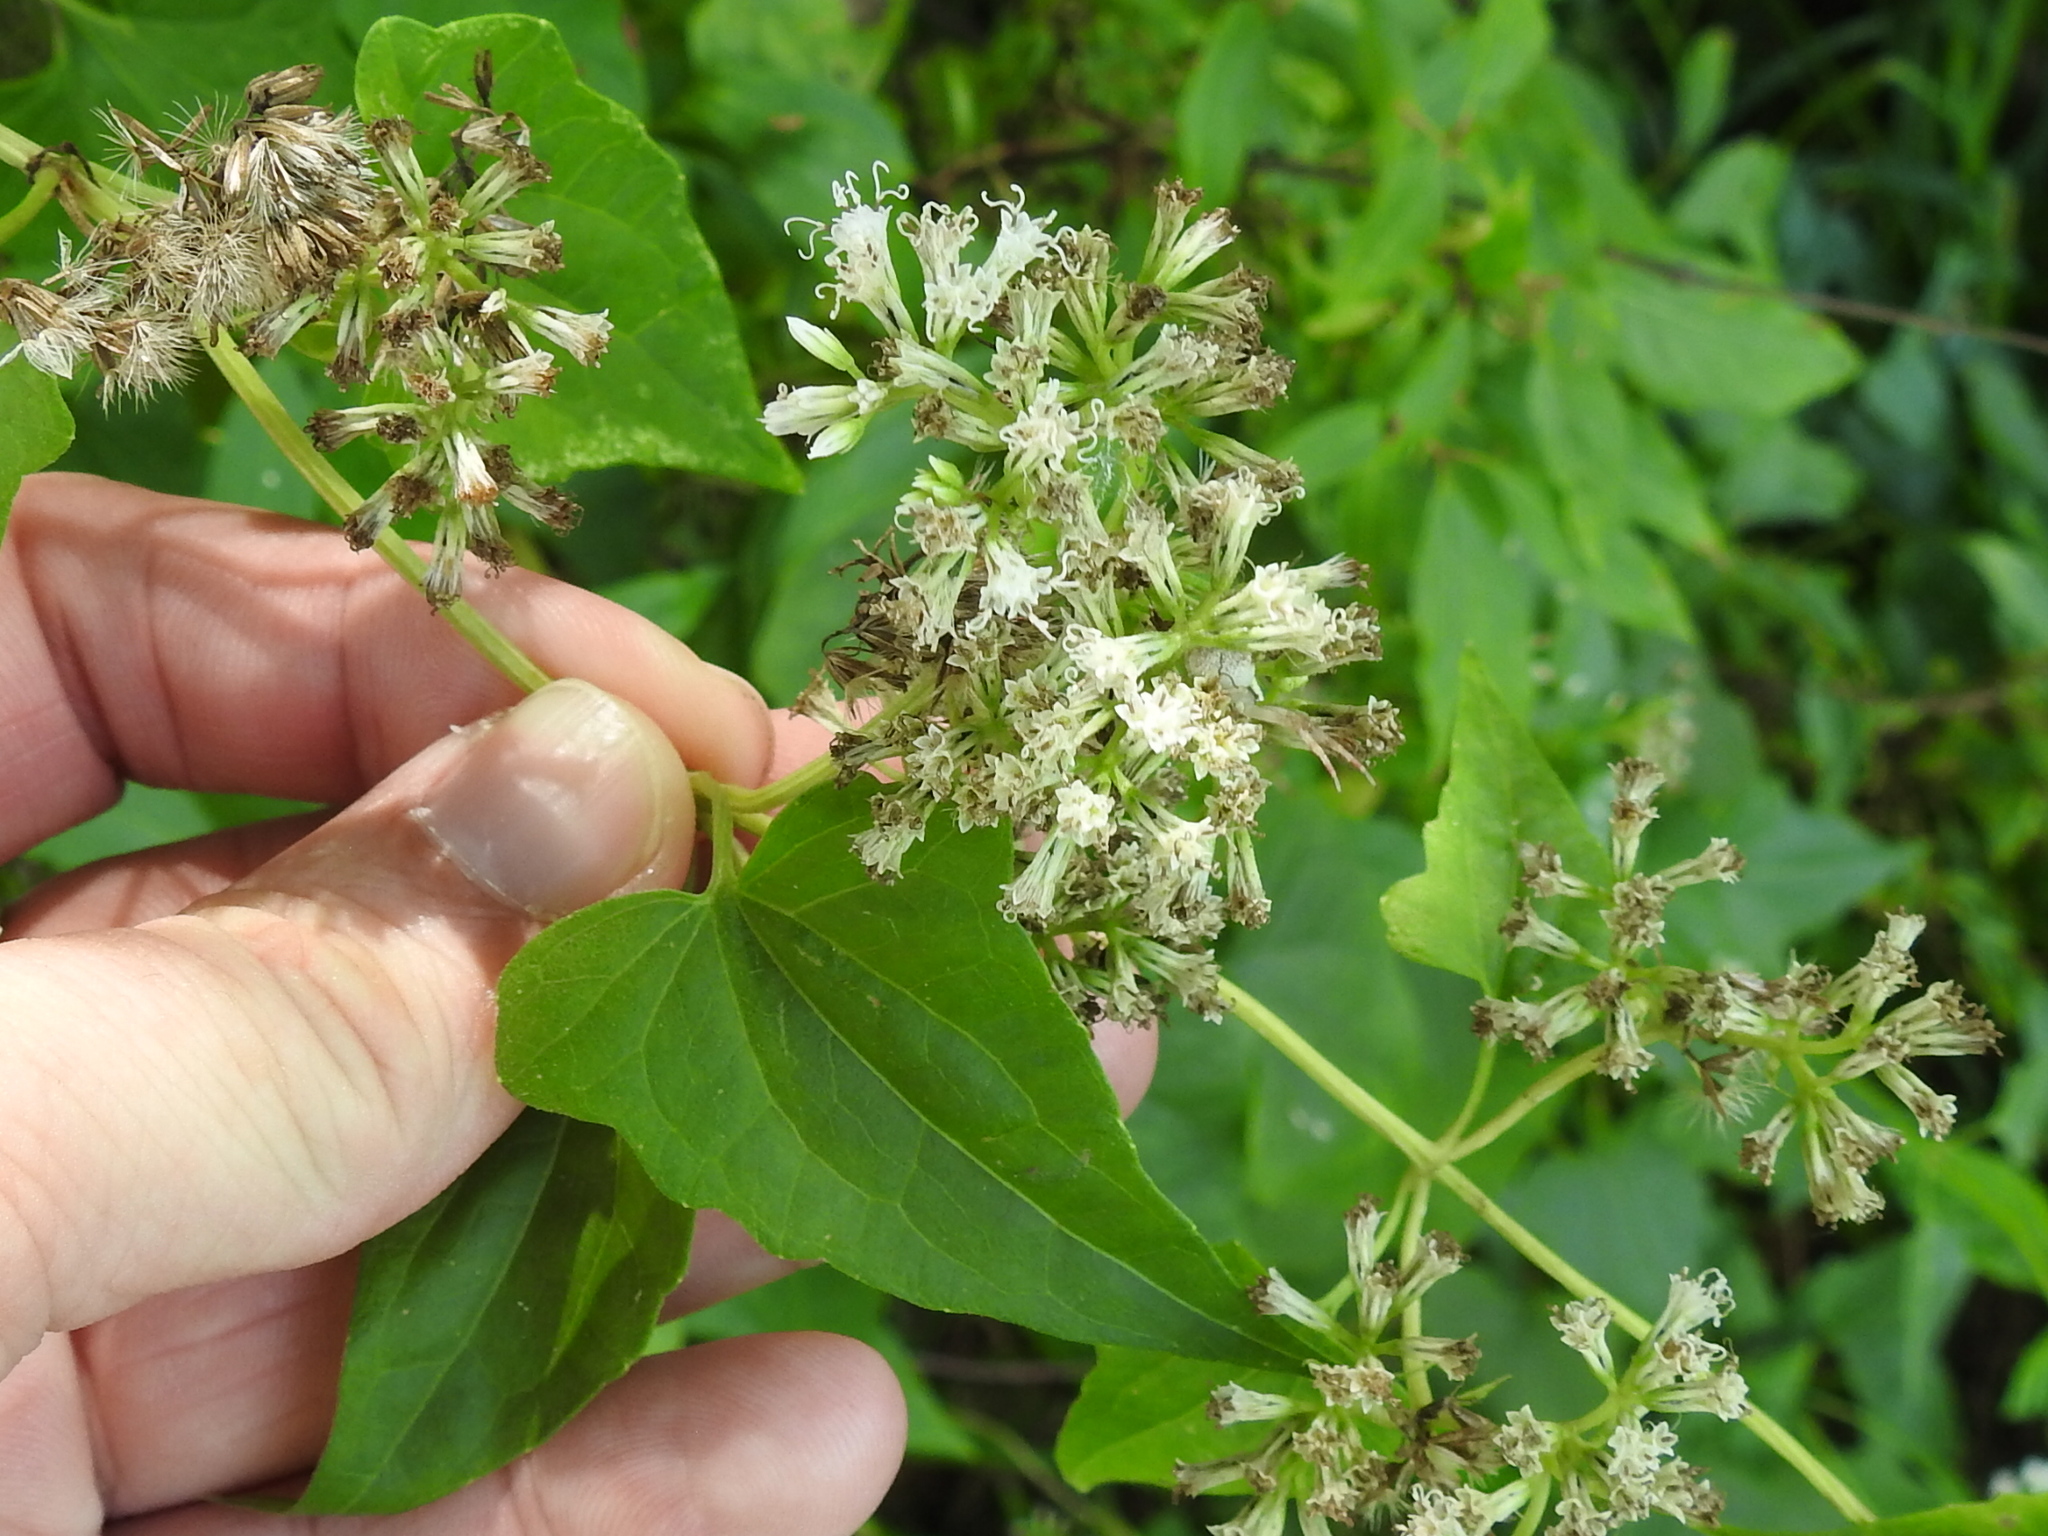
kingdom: Plantae
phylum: Tracheophyta
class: Magnoliopsida
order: Asterales
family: Asteraceae
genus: Mikania
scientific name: Mikania scandens
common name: Climbing hempvine
